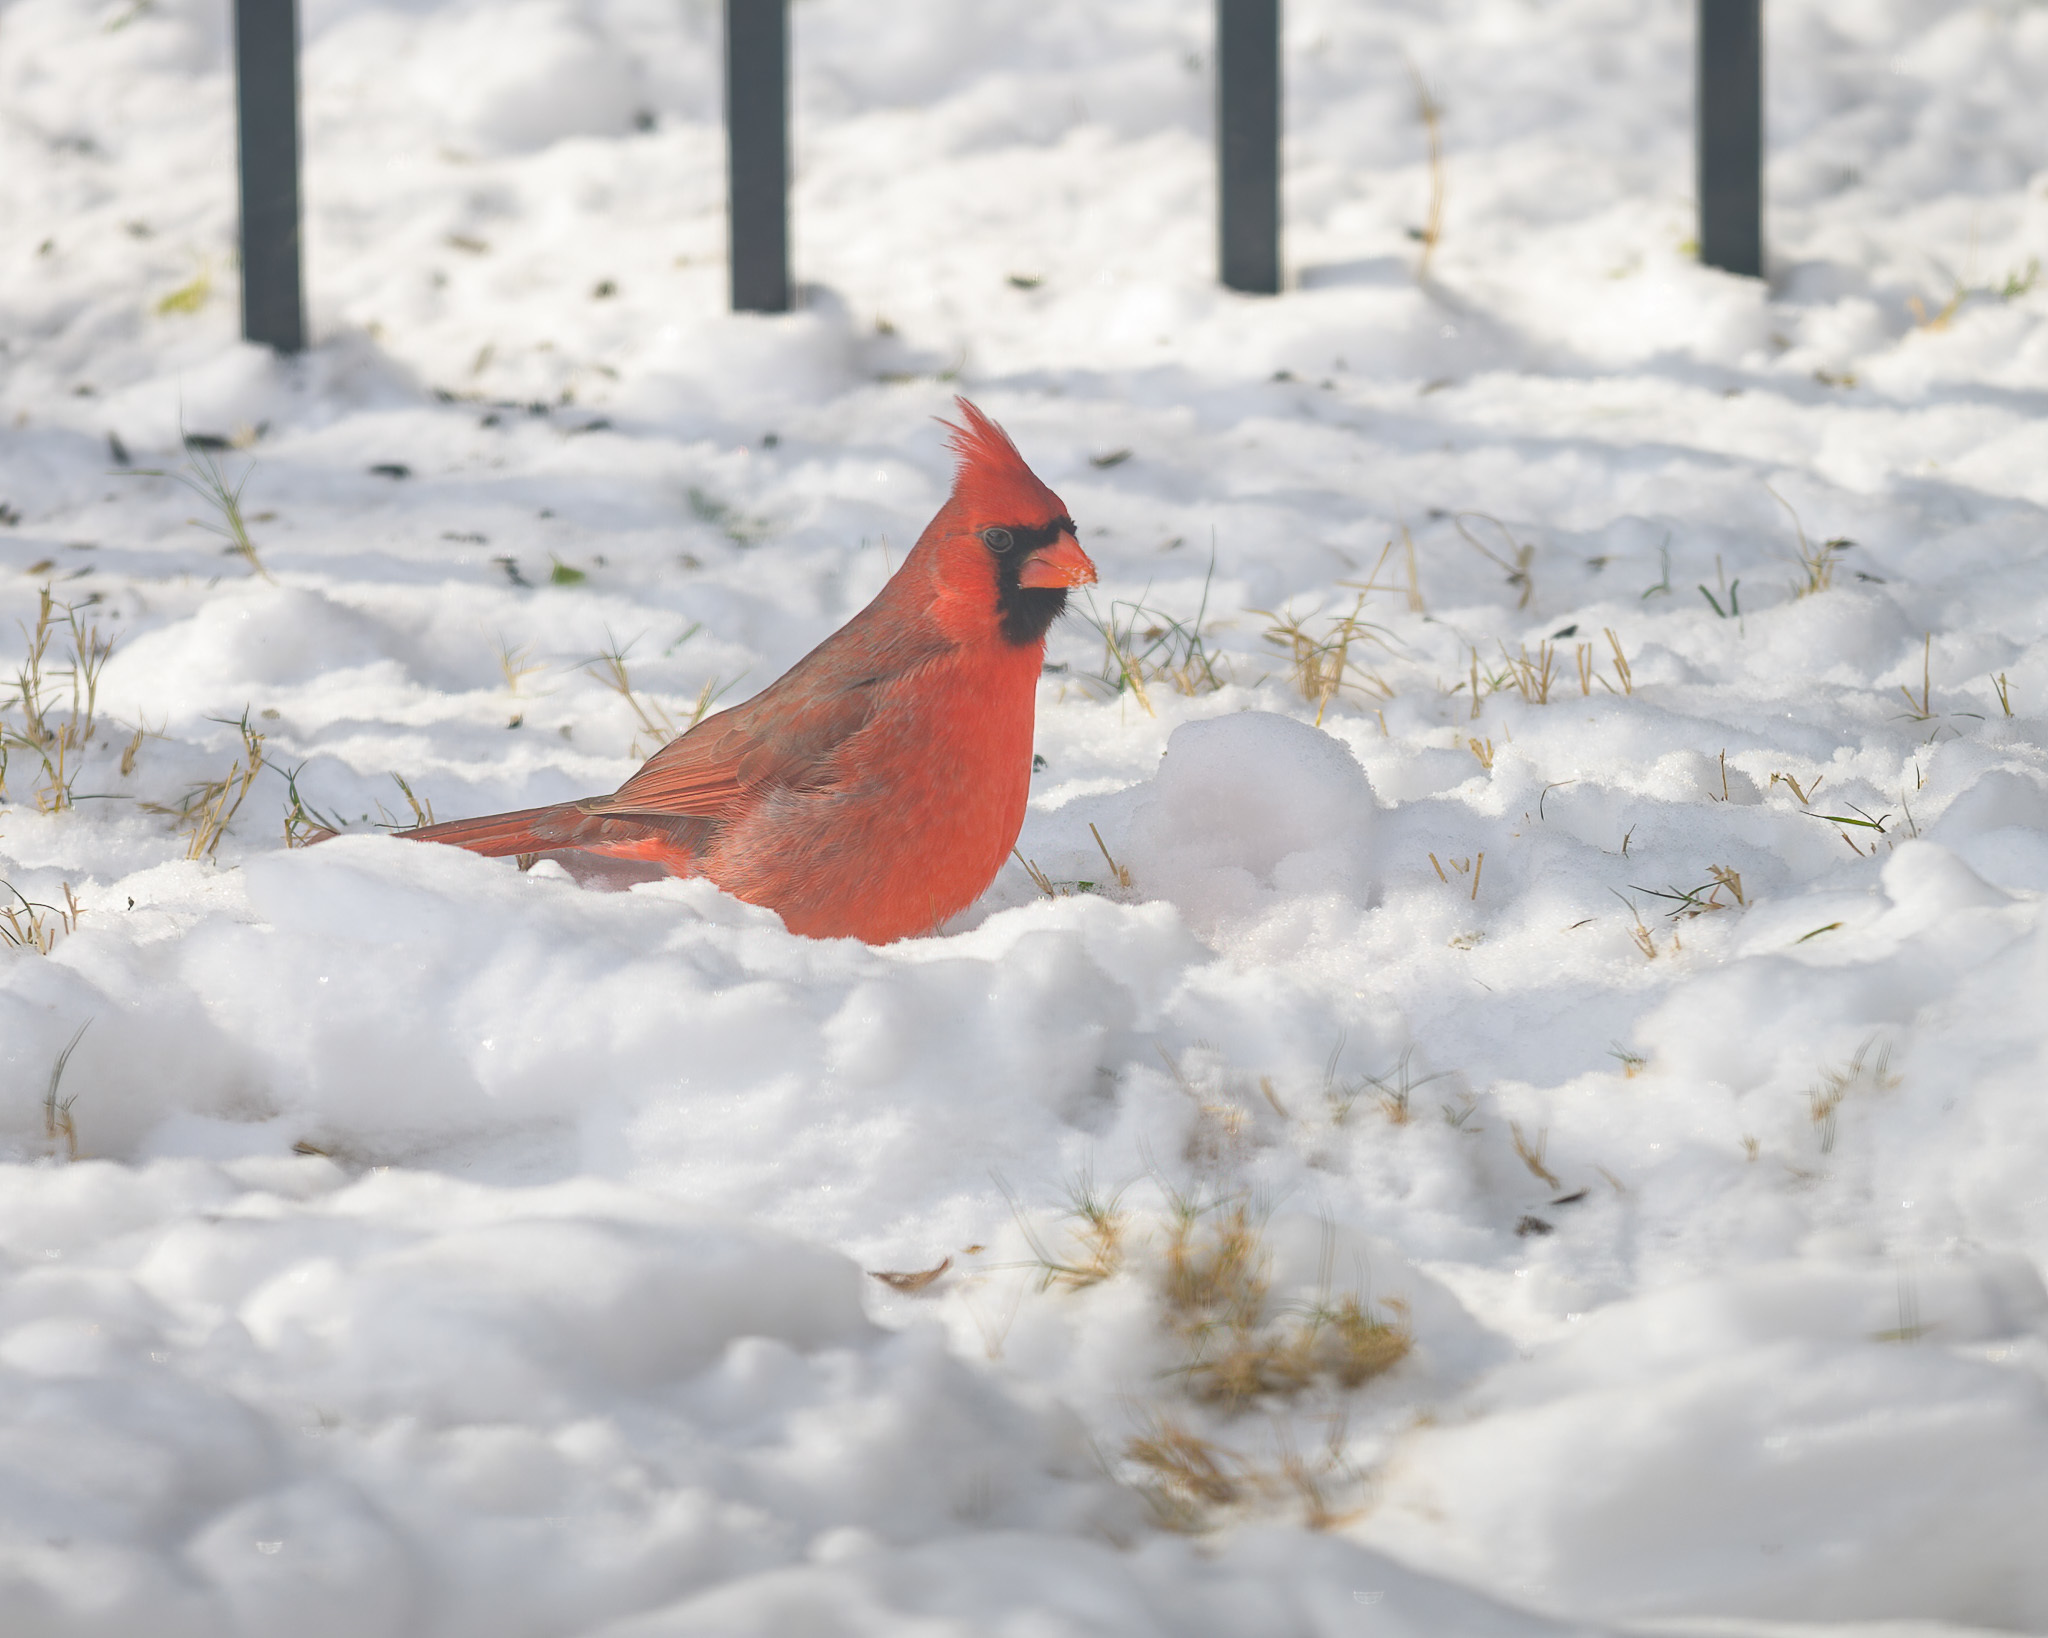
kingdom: Animalia
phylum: Chordata
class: Aves
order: Passeriformes
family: Cardinalidae
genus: Cardinalis
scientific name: Cardinalis cardinalis
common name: Northern cardinal
